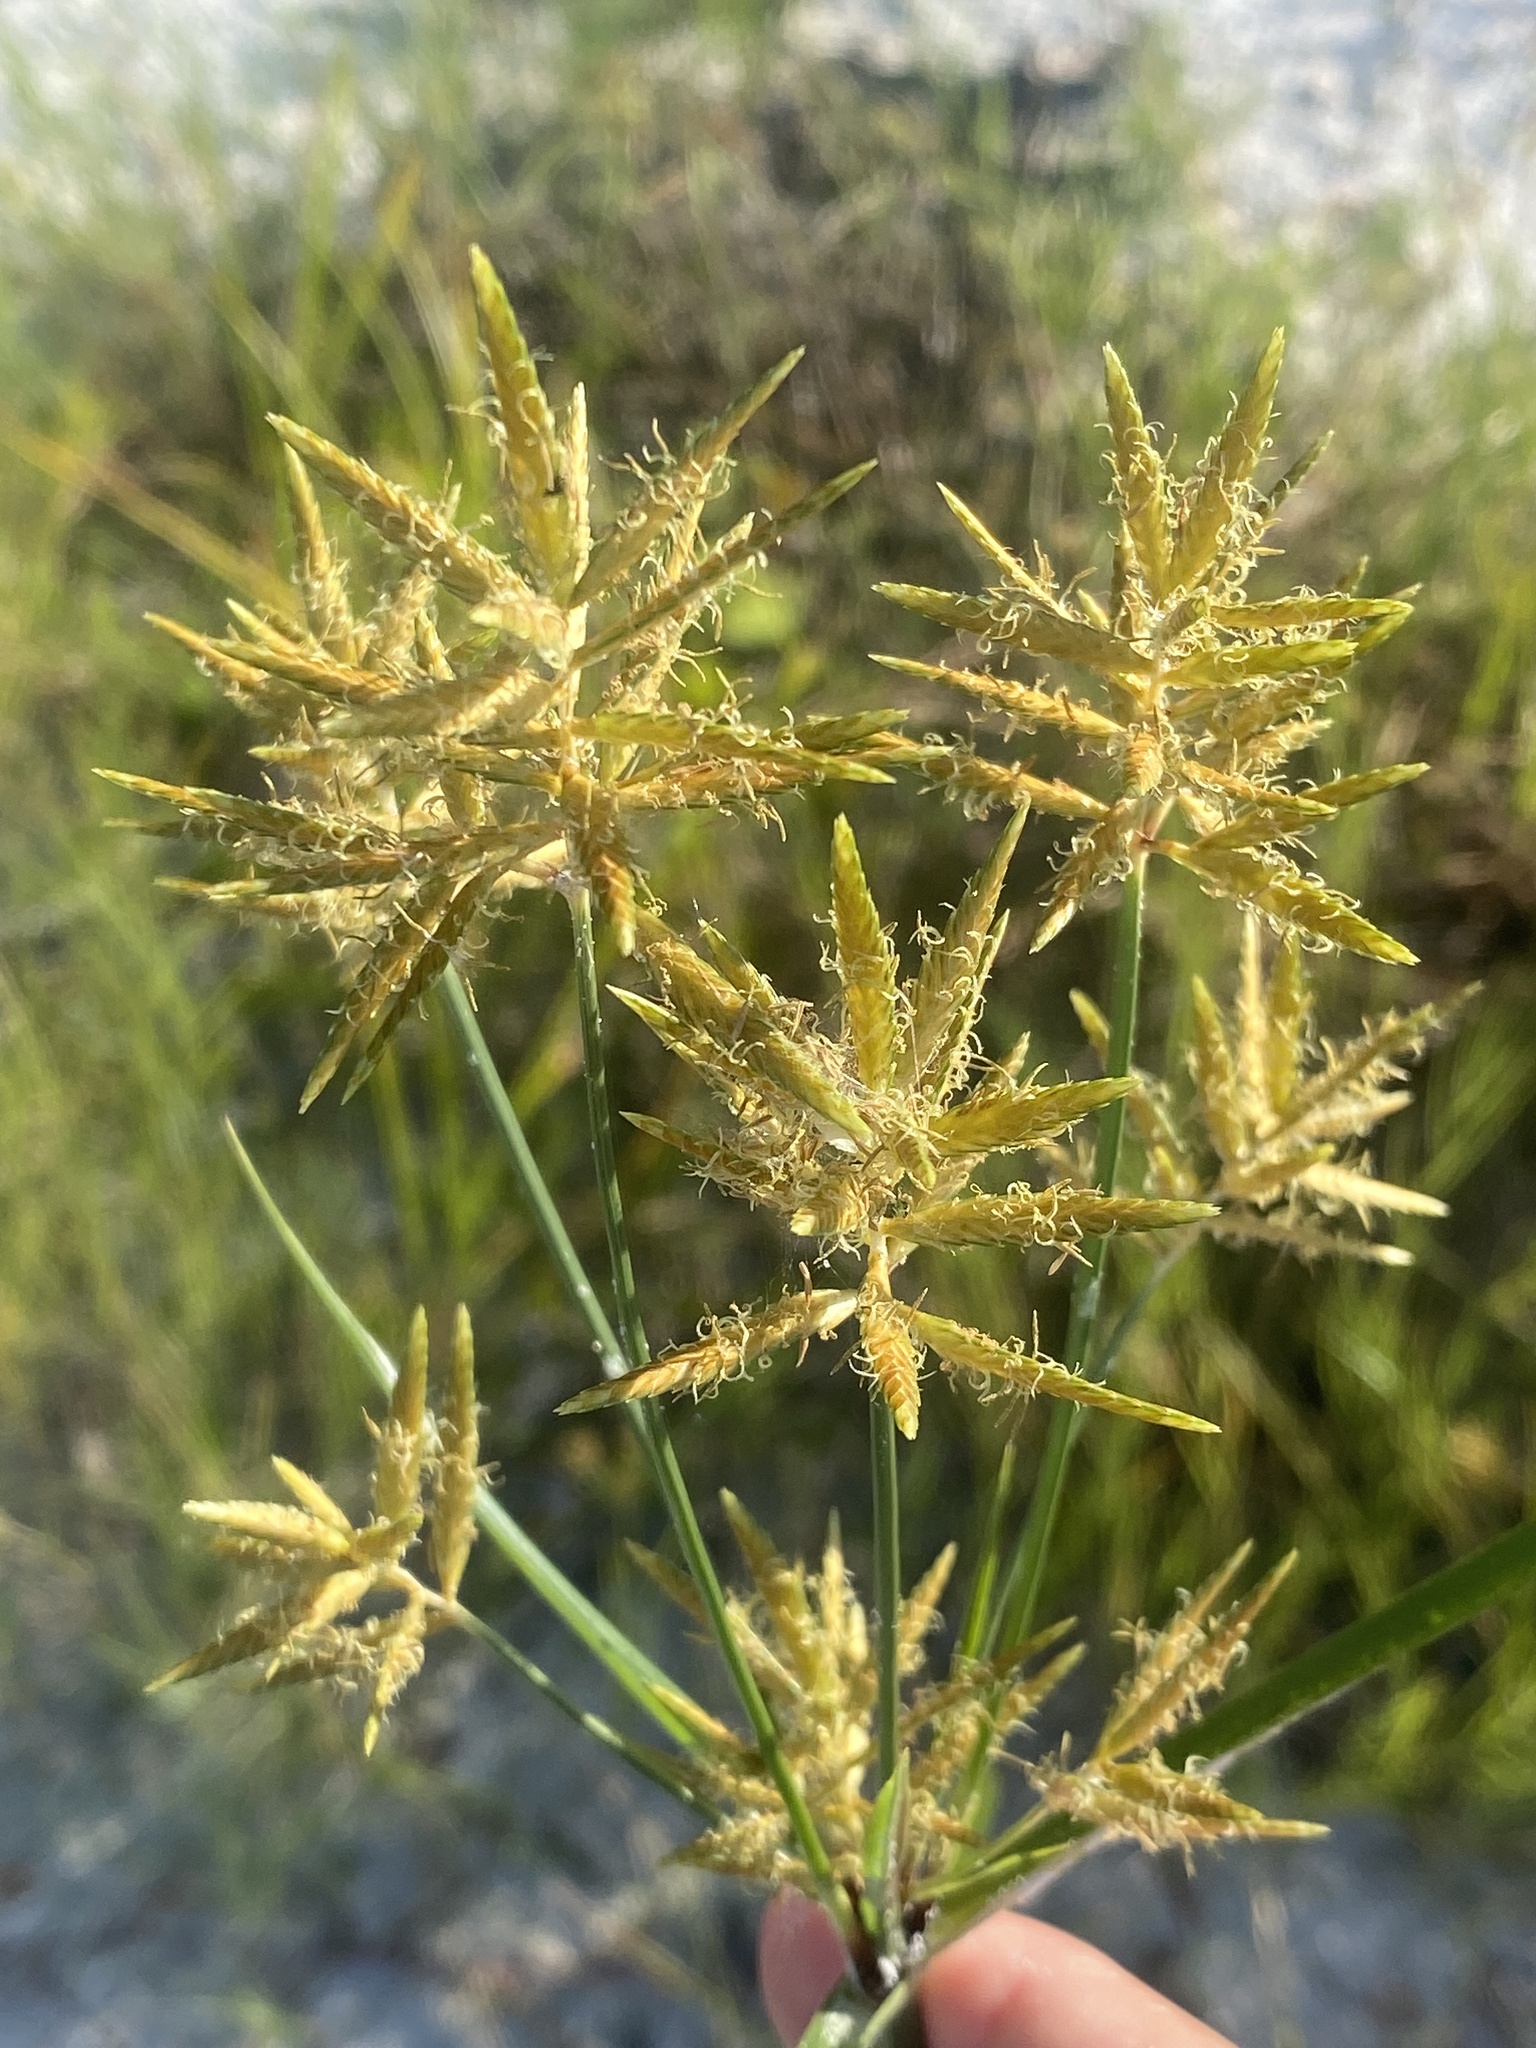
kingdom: Plantae
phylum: Tracheophyta
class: Liliopsida
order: Poales
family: Cyperaceae
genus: Cyperus
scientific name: Cyperus esculentus
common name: Yellow nutsedge
